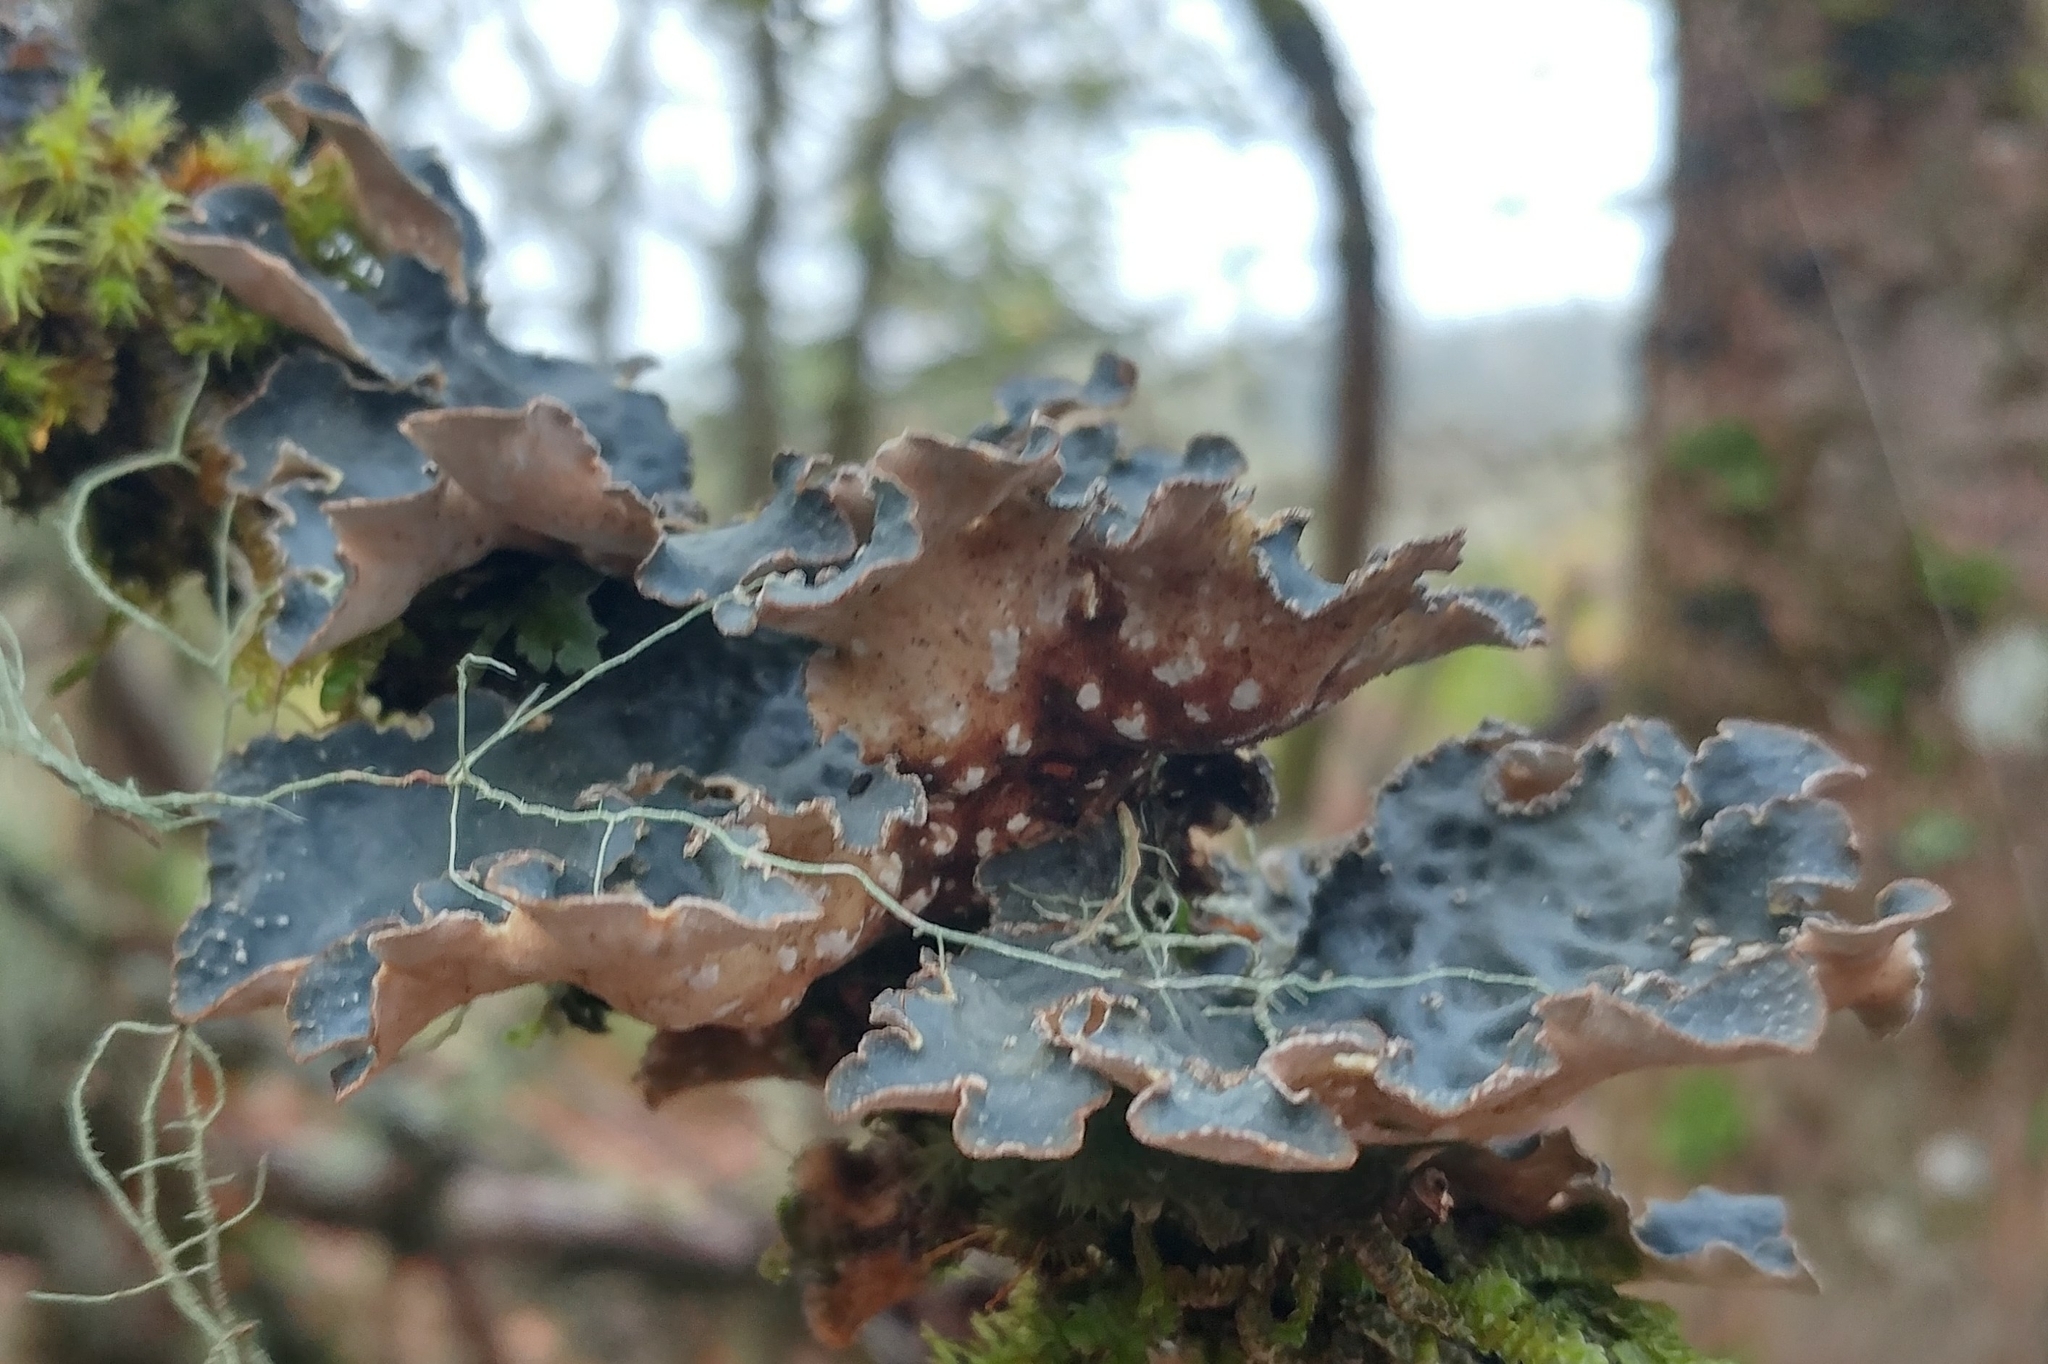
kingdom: Fungi
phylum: Ascomycota
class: Lecanoromycetes
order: Peltigerales
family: Lobariaceae
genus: Lobarina
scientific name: Lobarina scrobiculata
